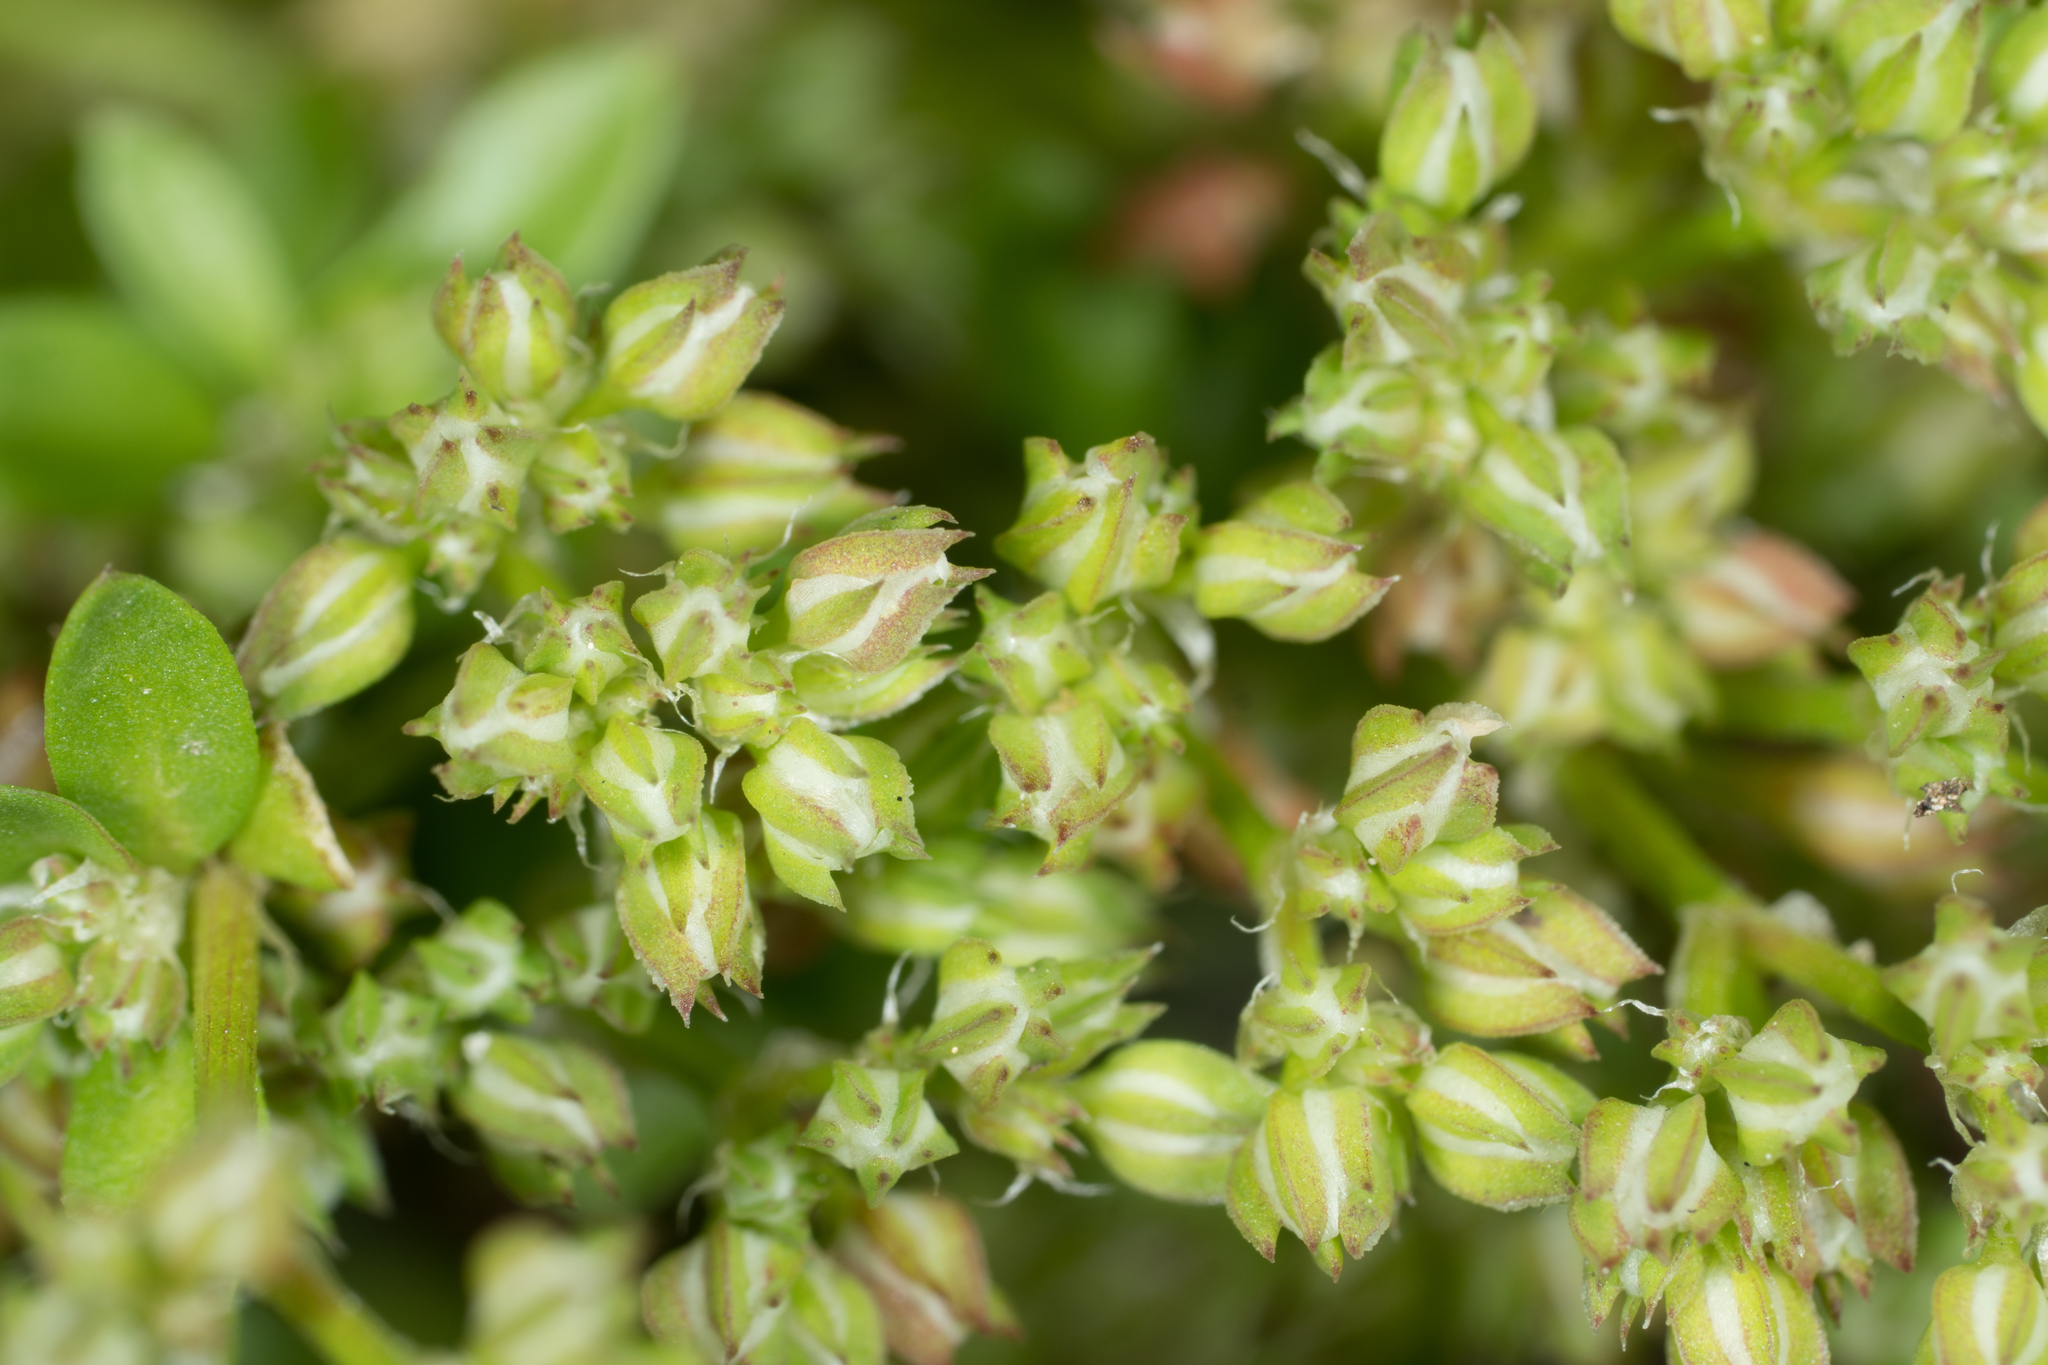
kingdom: Plantae
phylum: Tracheophyta
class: Magnoliopsida
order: Caryophyllales
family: Caryophyllaceae
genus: Polycarpon
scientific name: Polycarpon tetraphyllum
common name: Four-leaved all-seed
